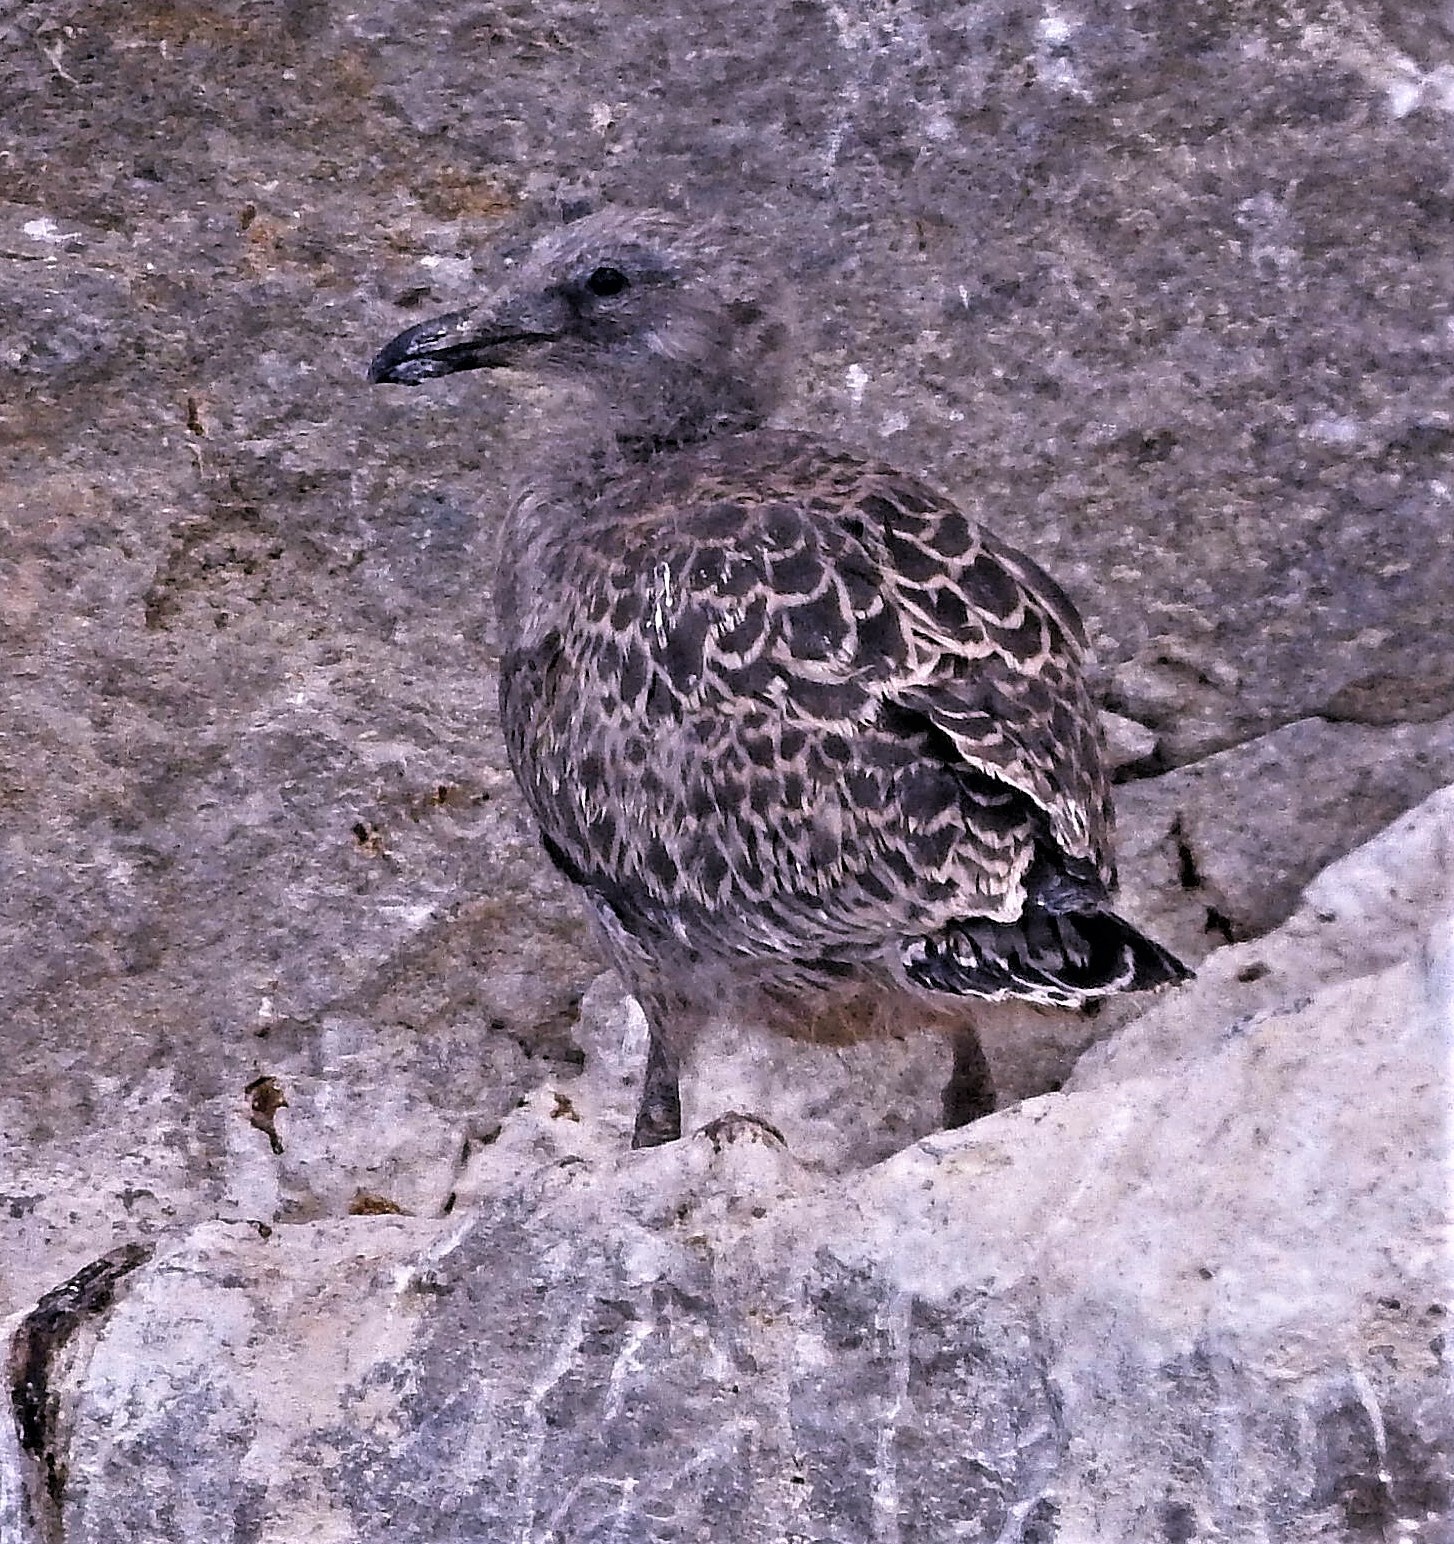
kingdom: Animalia
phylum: Chordata
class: Aves
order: Charadriiformes
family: Laridae
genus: Larus
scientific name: Larus dominicanus
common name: Kelp gull
